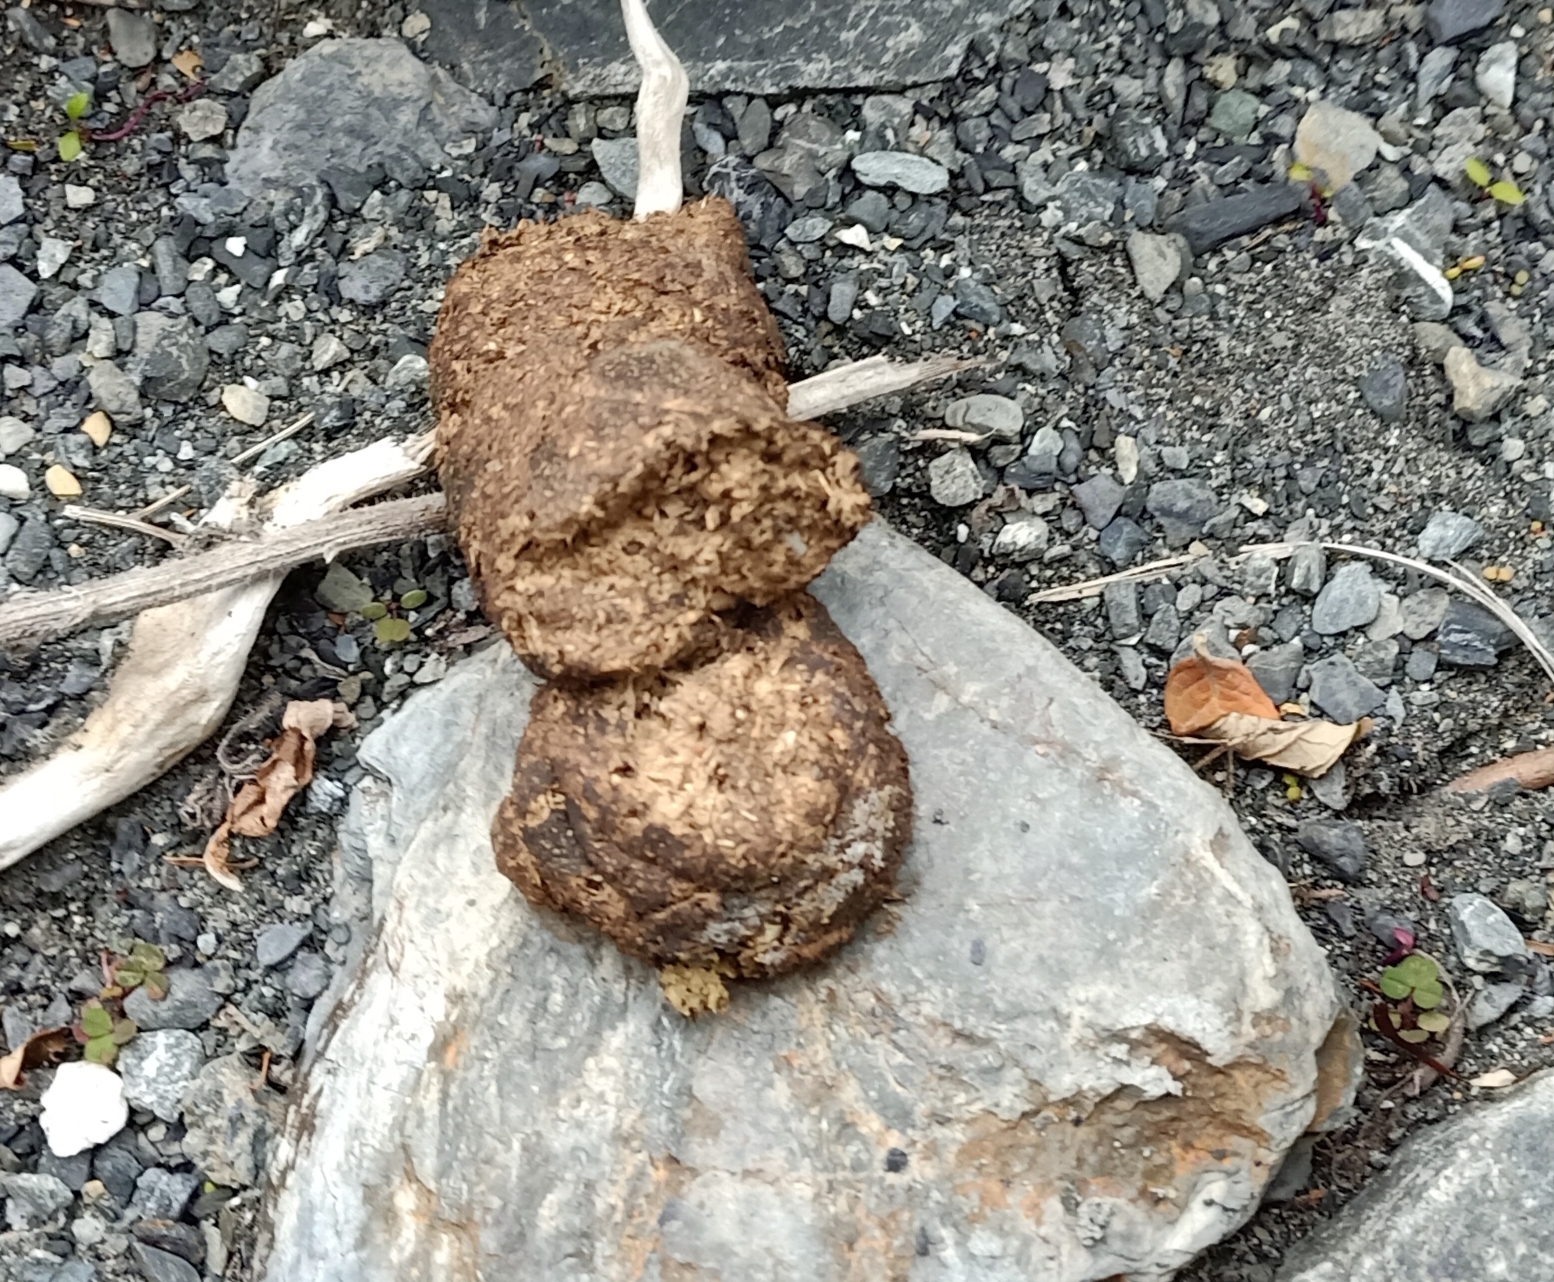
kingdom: Animalia
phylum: Chordata
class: Mammalia
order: Artiodactyla
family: Suidae
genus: Sus
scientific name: Sus scrofa
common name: Wild boar
